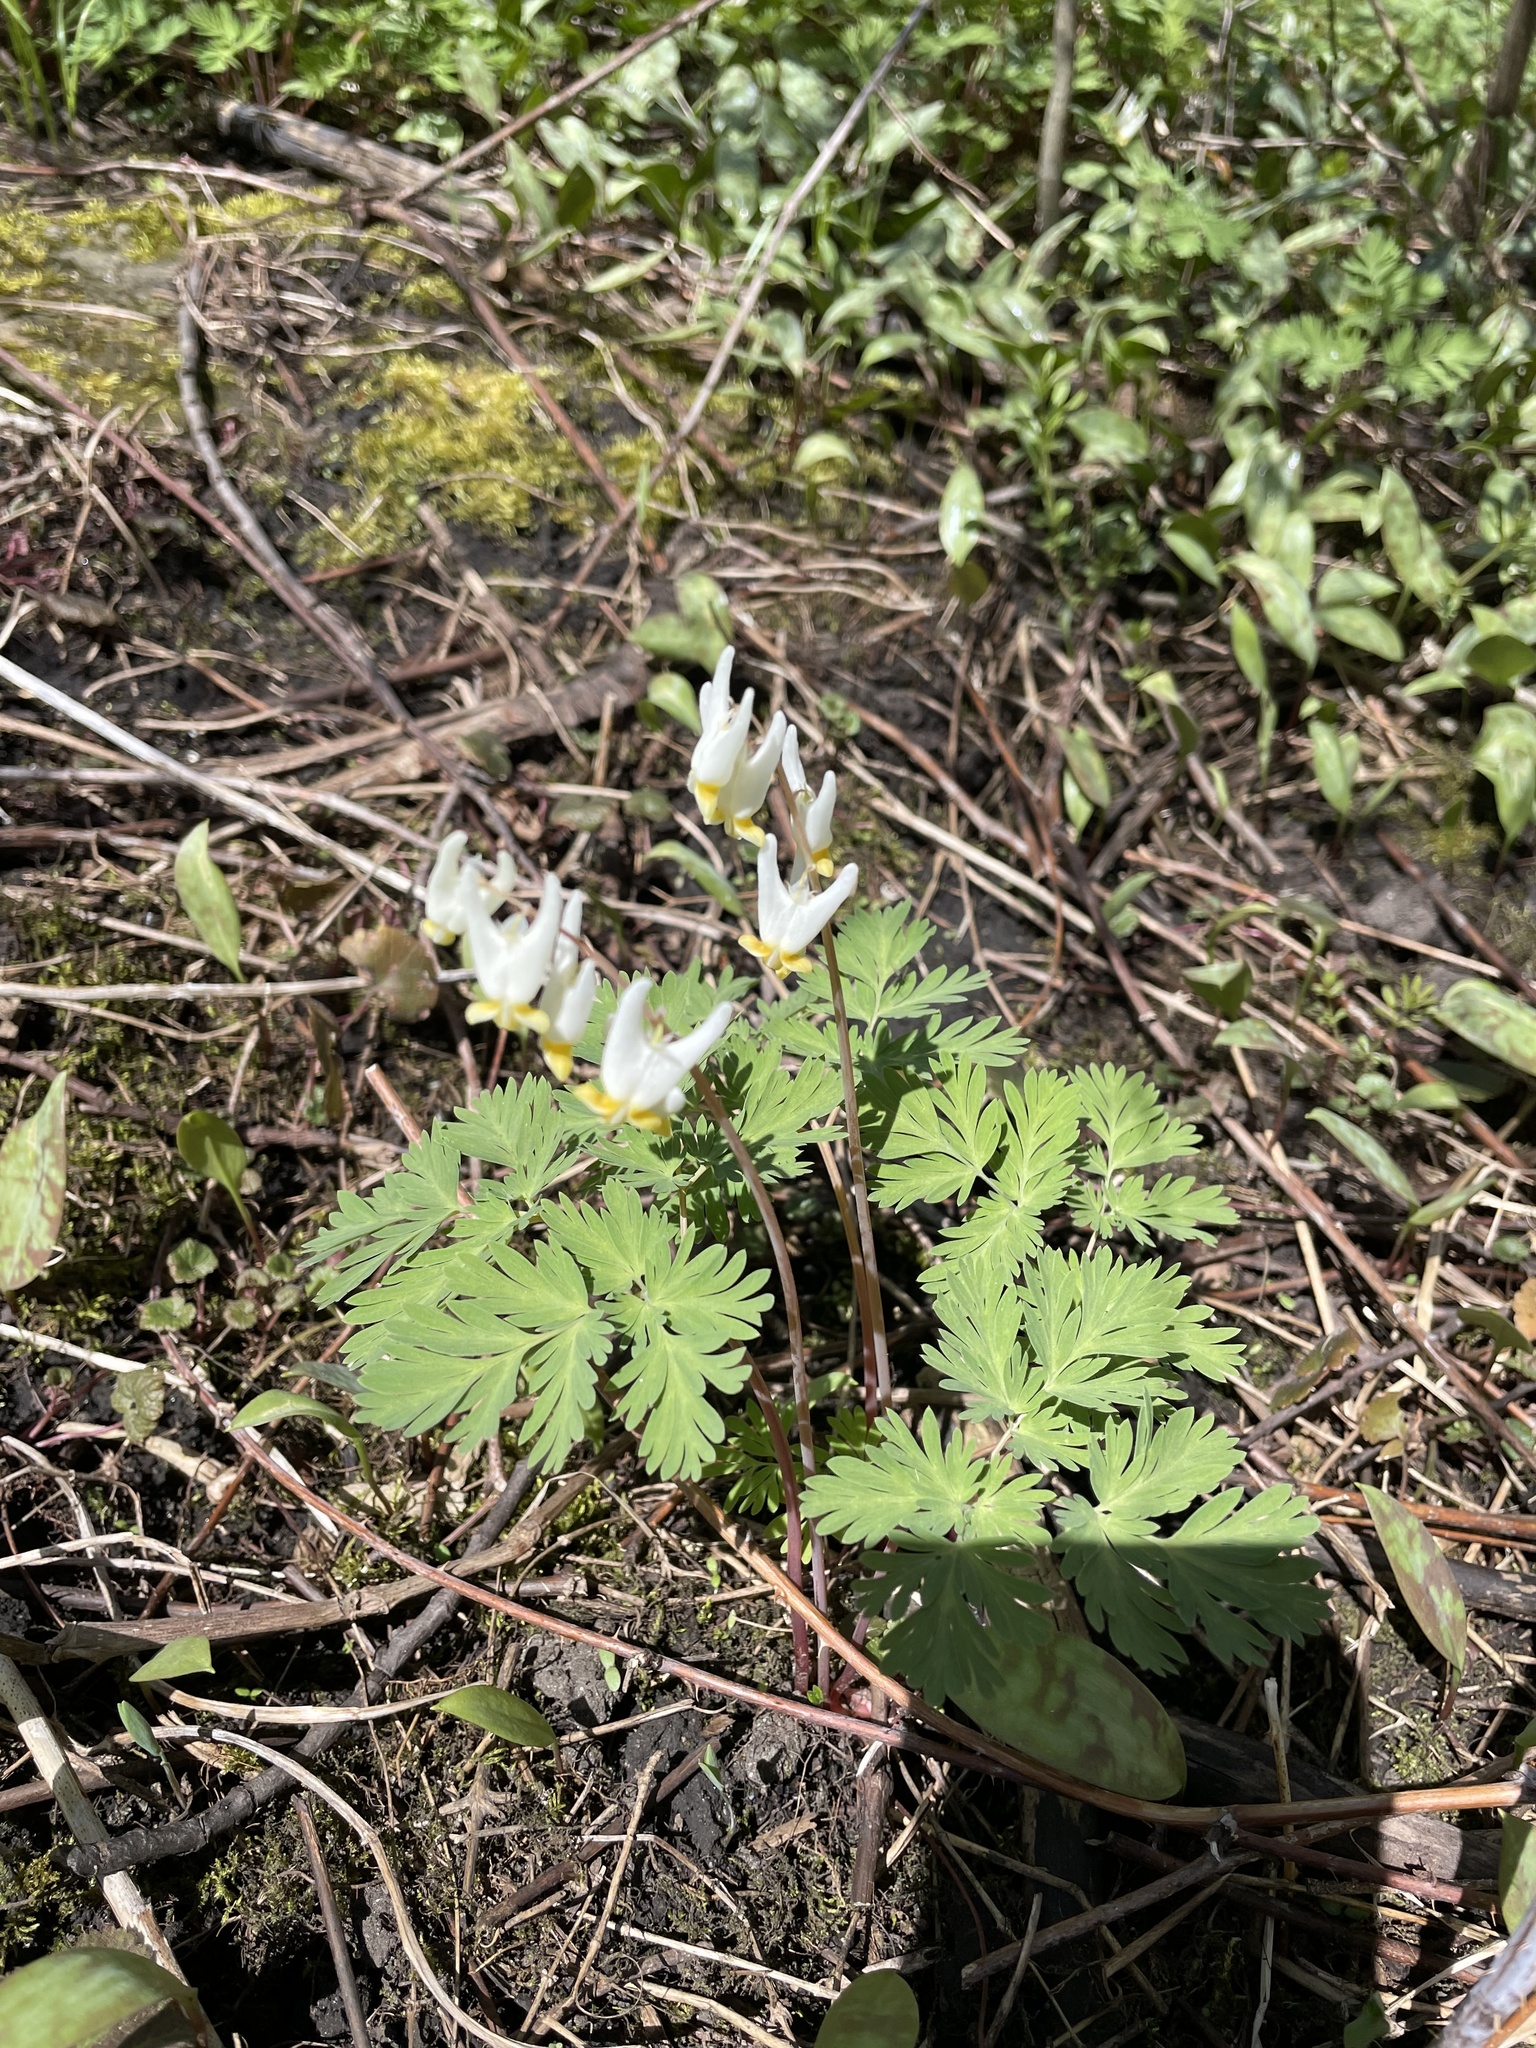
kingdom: Plantae
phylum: Tracheophyta
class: Magnoliopsida
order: Ranunculales
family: Papaveraceae
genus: Dicentra
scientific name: Dicentra cucullaria
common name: Dutchman's breeches
